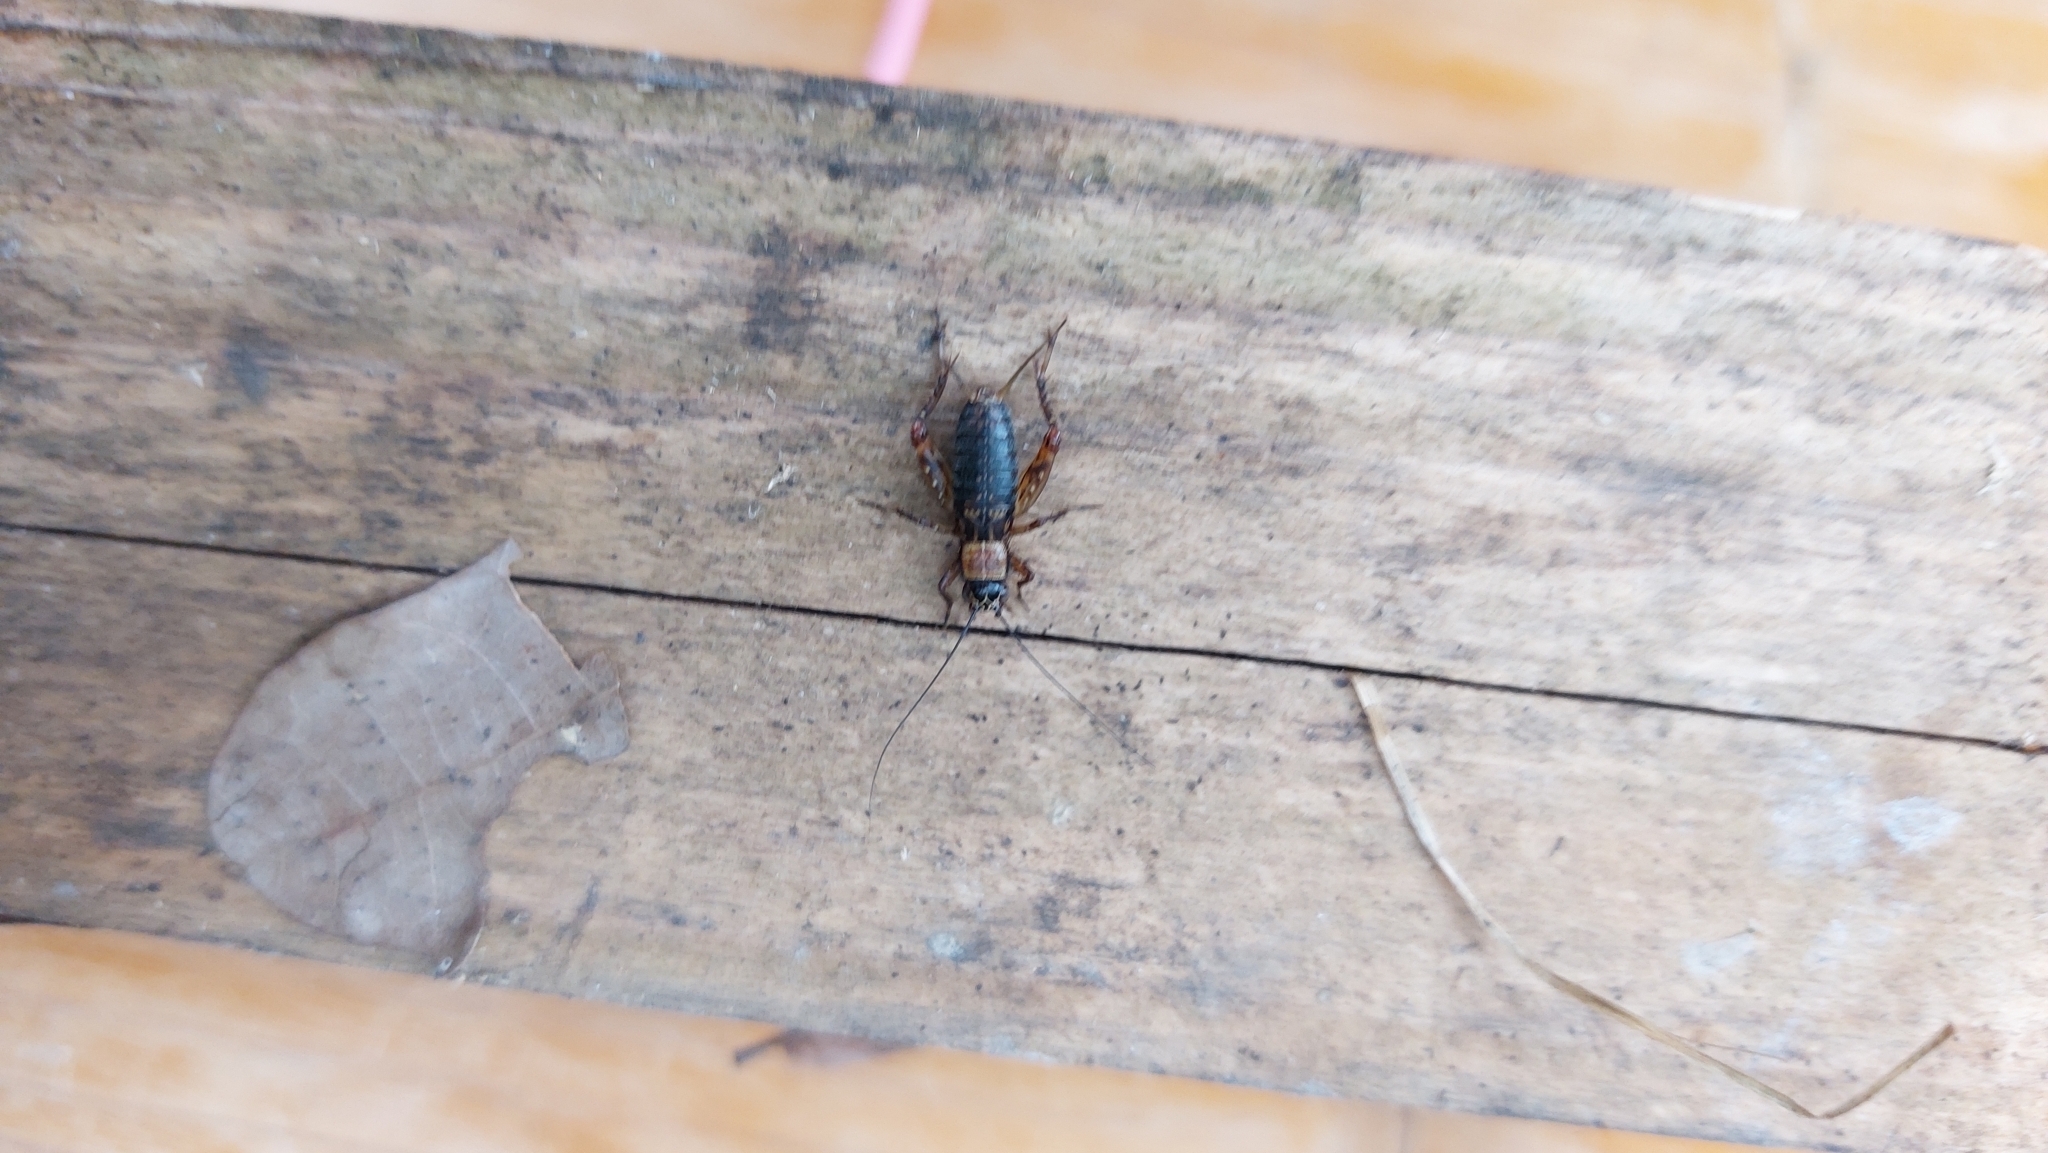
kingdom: Animalia
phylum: Arthropoda
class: Insecta
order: Orthoptera
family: Trigonidiidae
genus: Nemobius
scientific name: Nemobius sylvestris
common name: Wood-cricket
